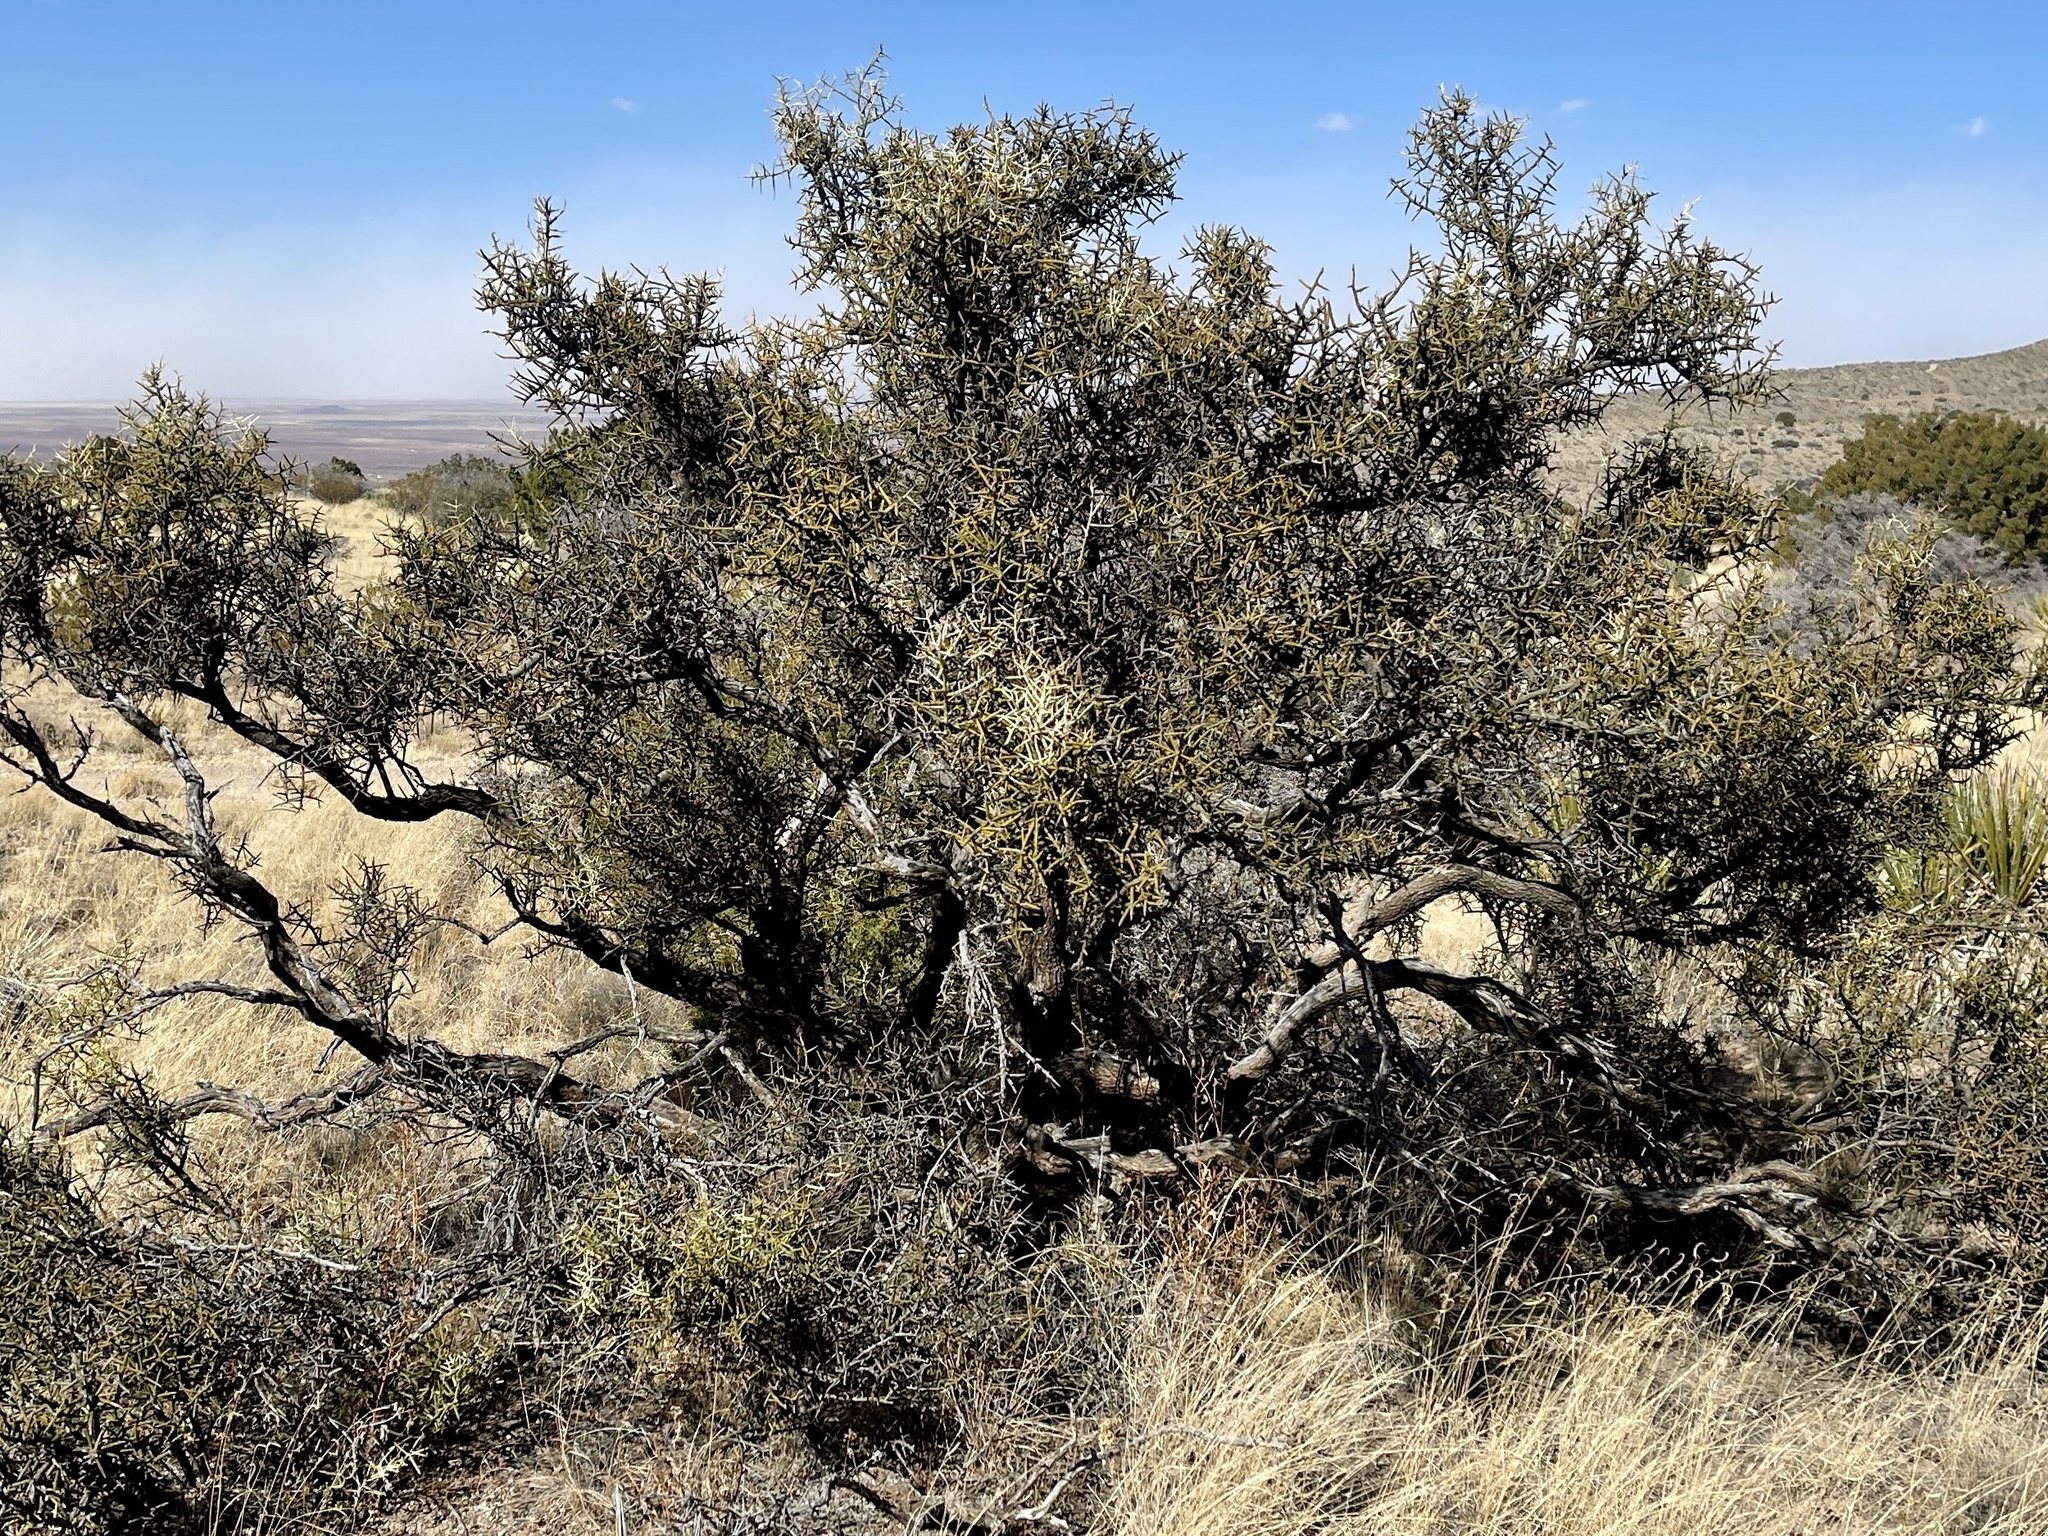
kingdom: Plantae
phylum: Tracheophyta
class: Magnoliopsida
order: Brassicales
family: Koeberliniaceae
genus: Koeberlinia
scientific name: Koeberlinia spinosa
